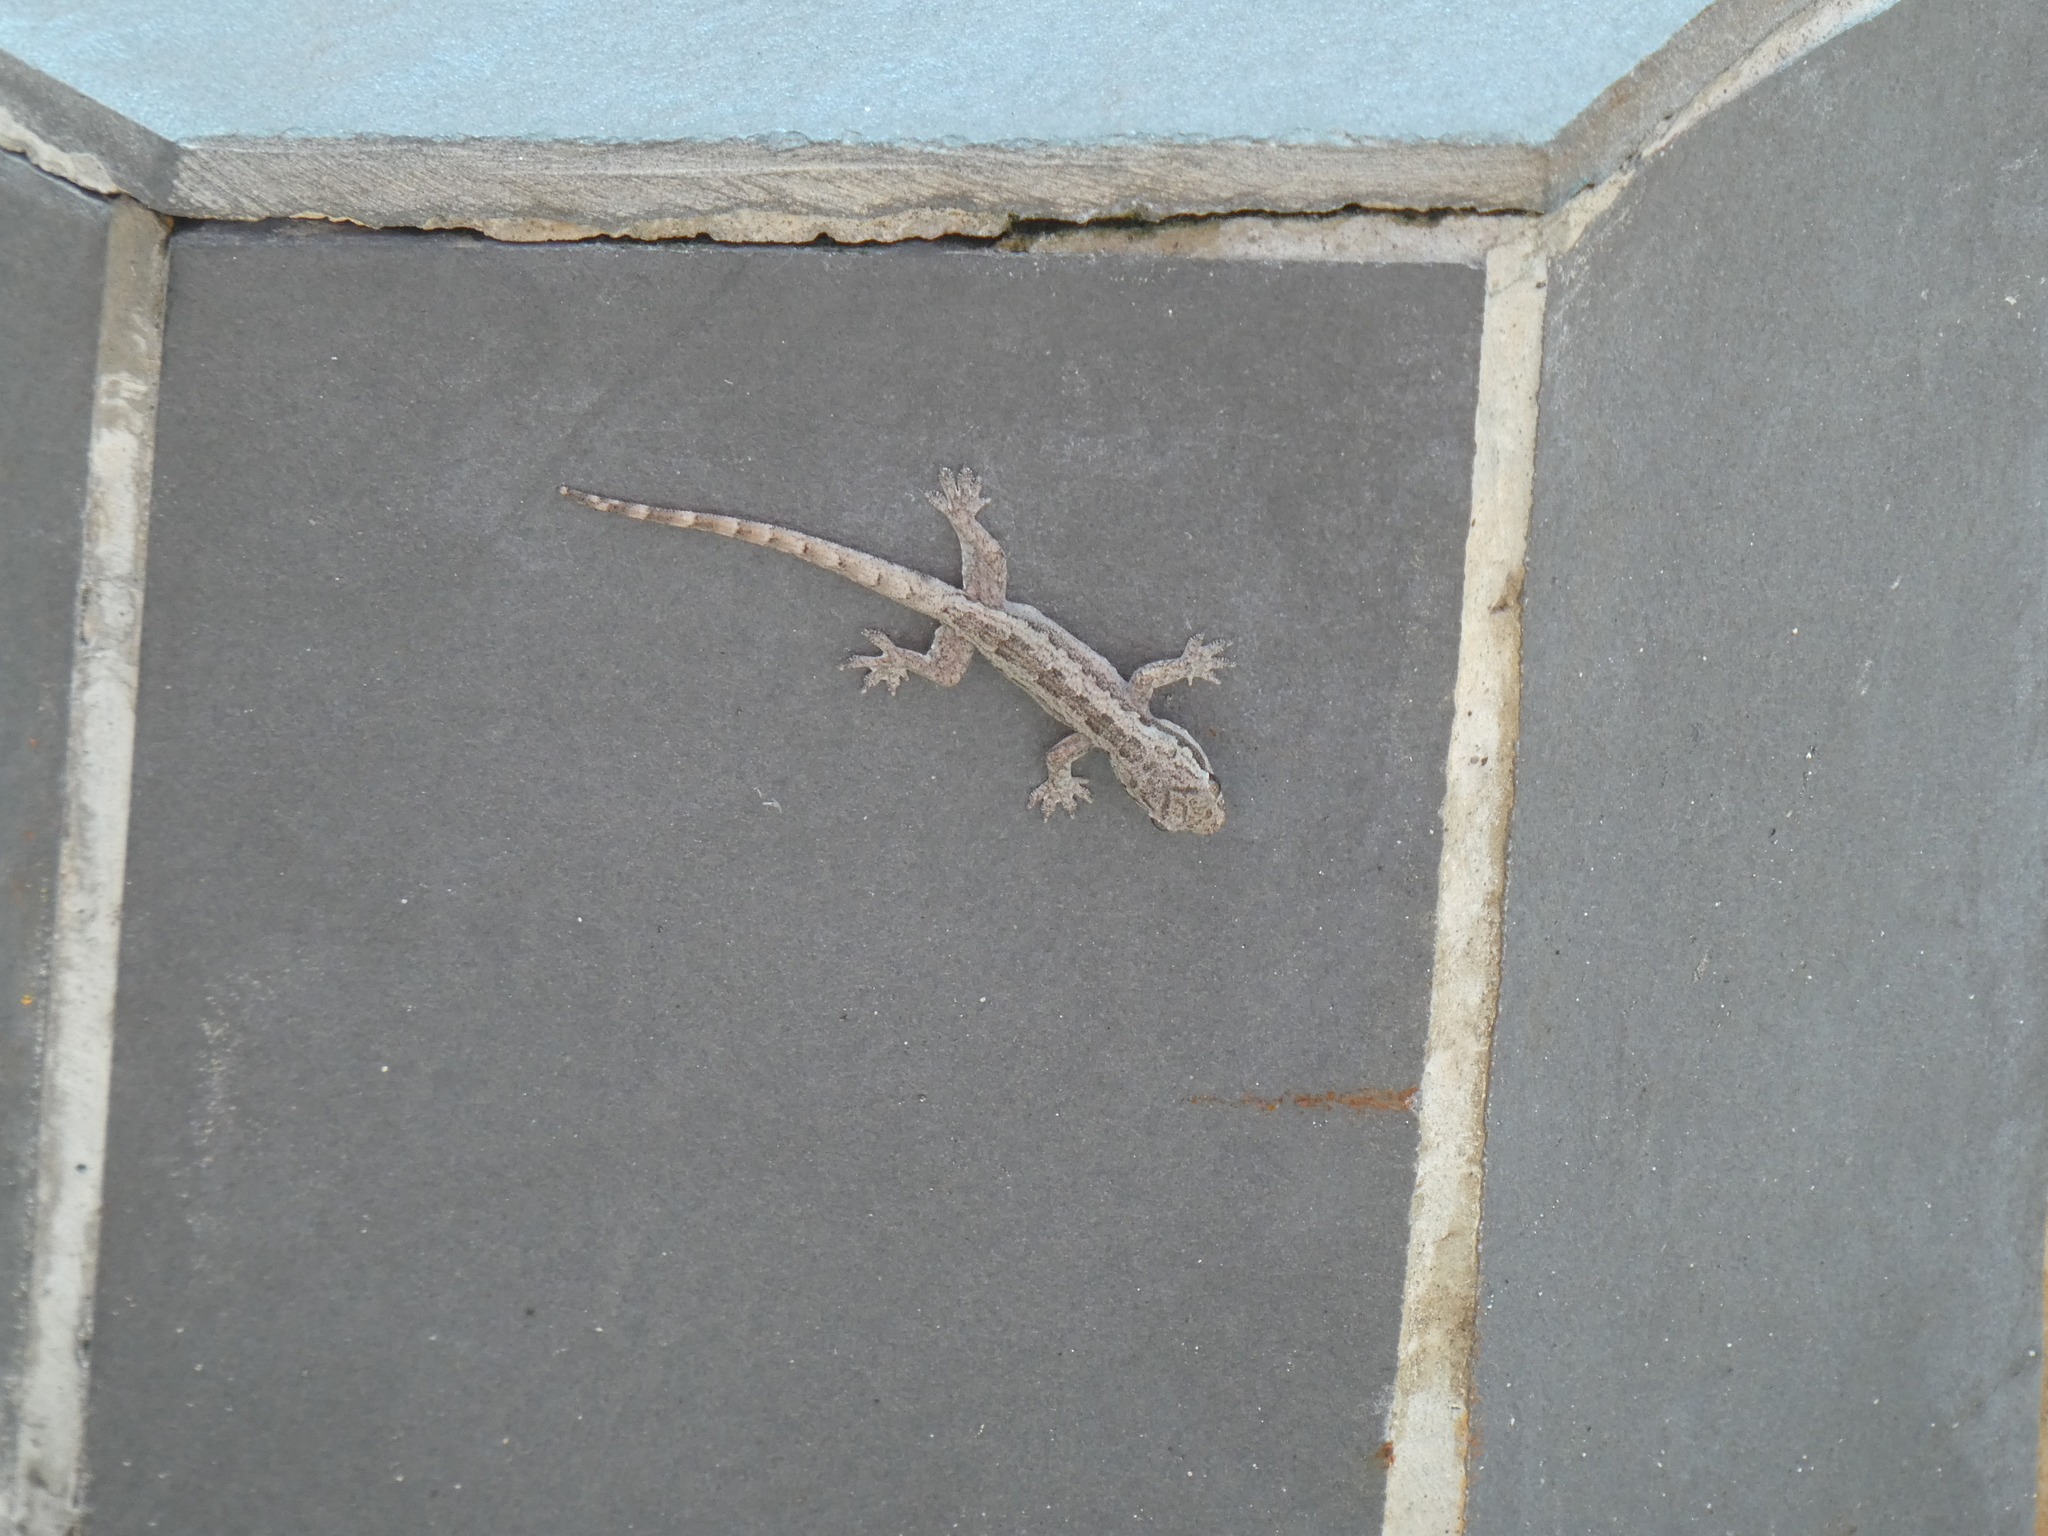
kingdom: Animalia
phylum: Chordata
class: Squamata
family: Gekkonidae
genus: Hemidactylus
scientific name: Hemidactylus platyurus
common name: Flat-tailed house gecko
